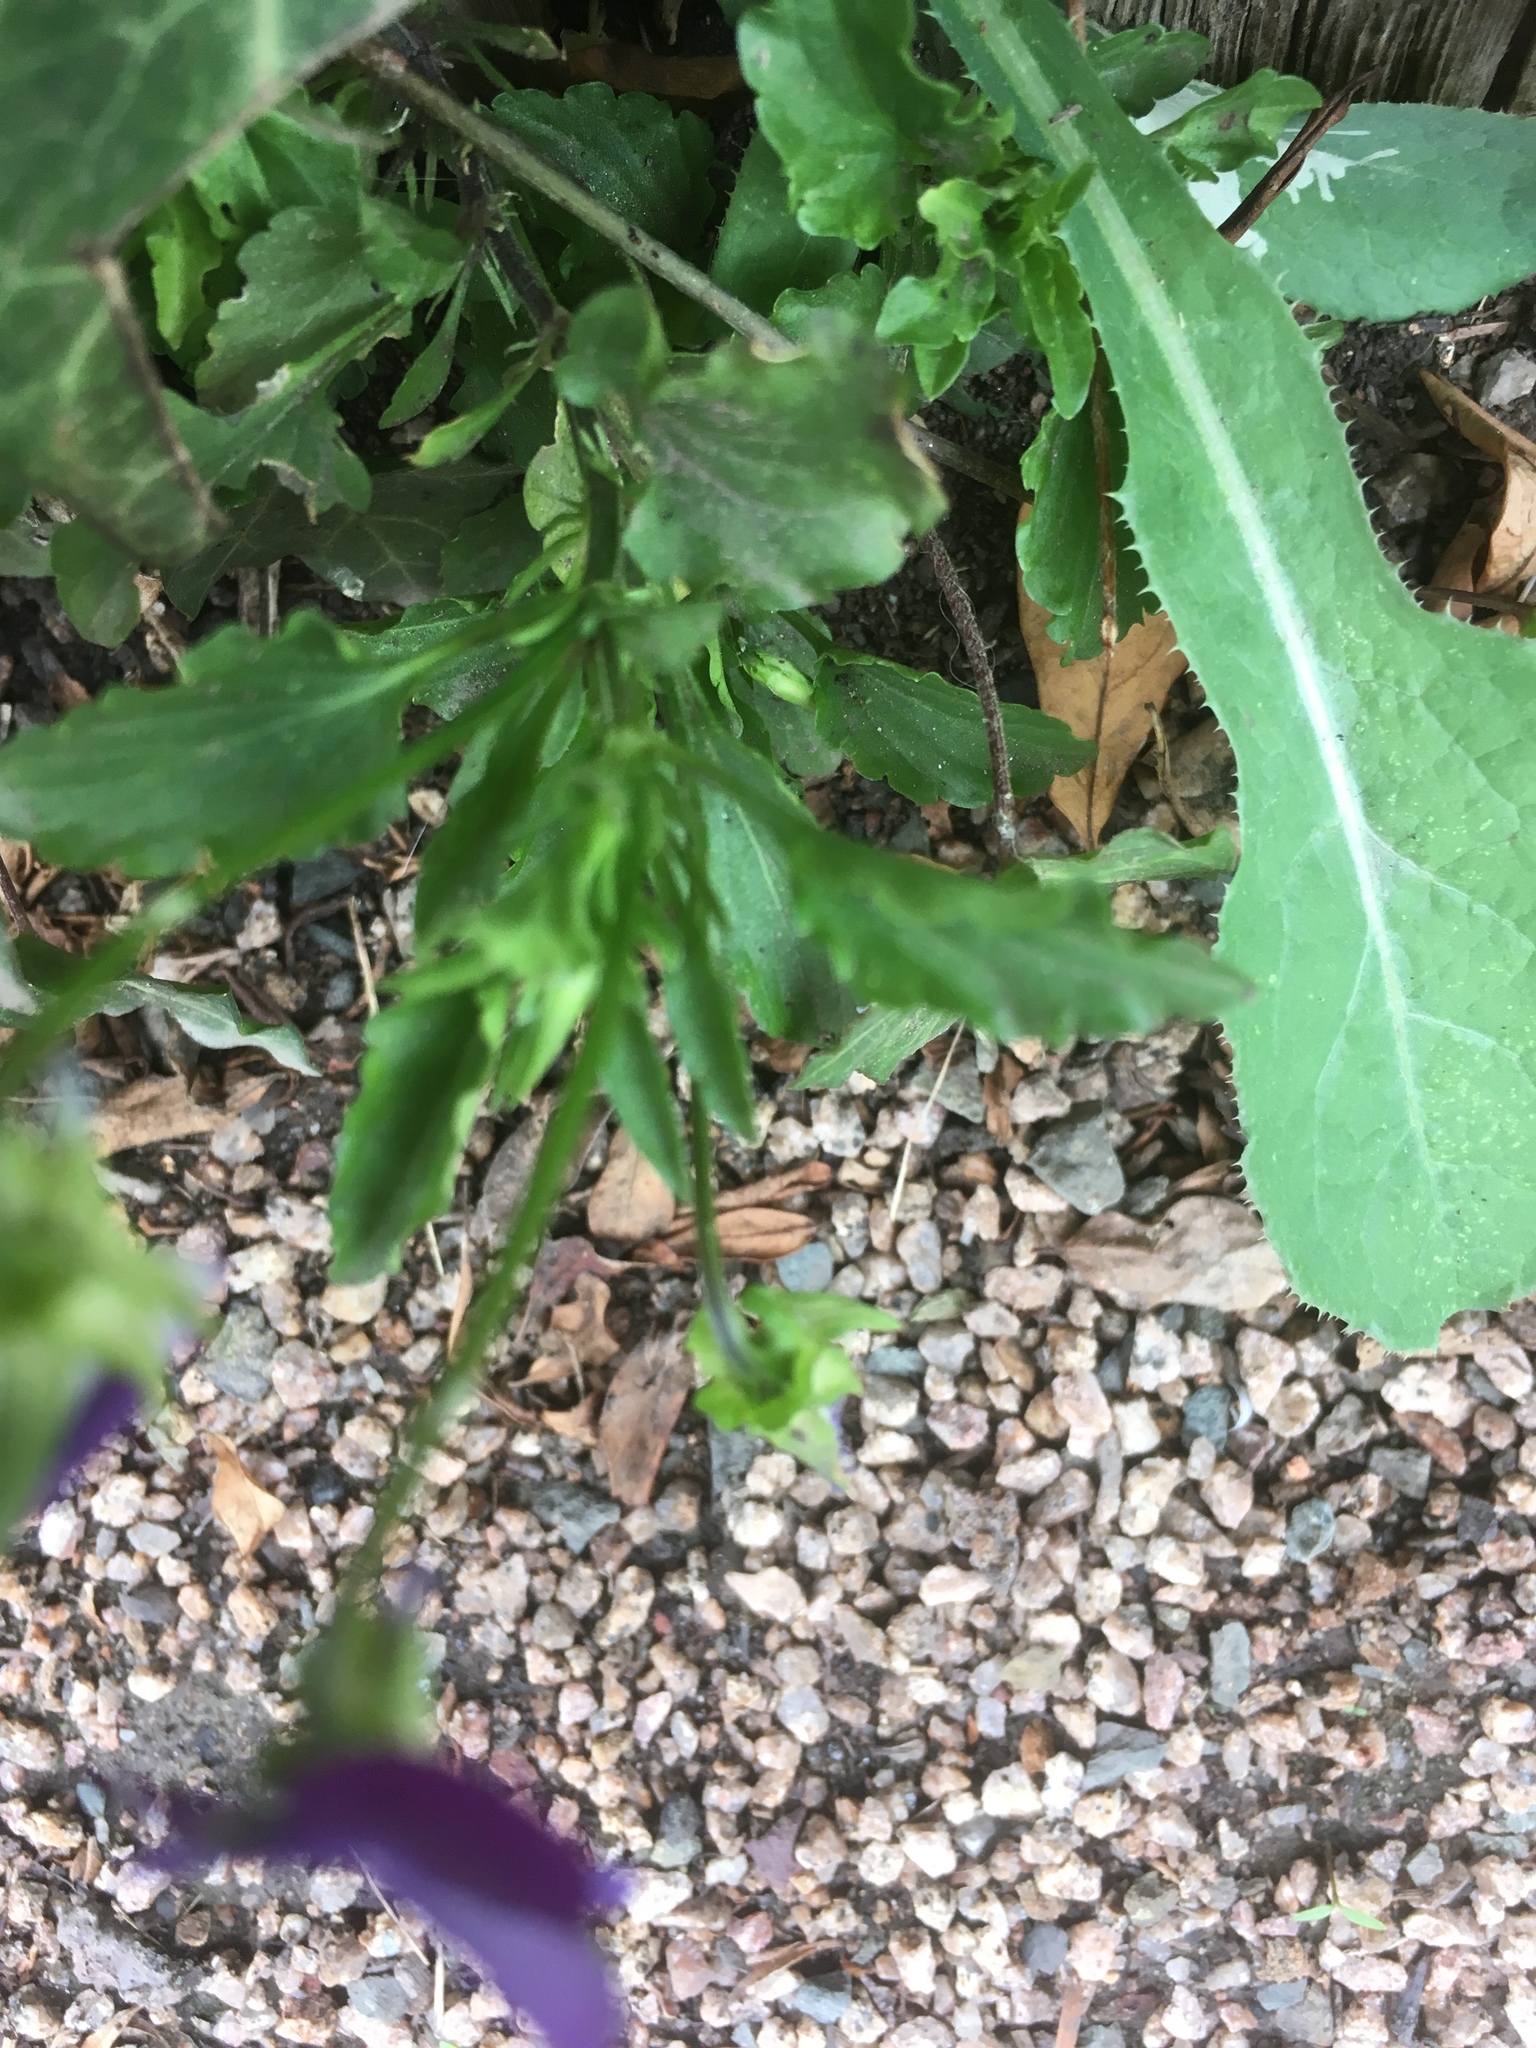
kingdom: Plantae
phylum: Tracheophyta
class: Magnoliopsida
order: Malpighiales
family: Violaceae
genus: Viola
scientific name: Viola tricolor
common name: Pansy
